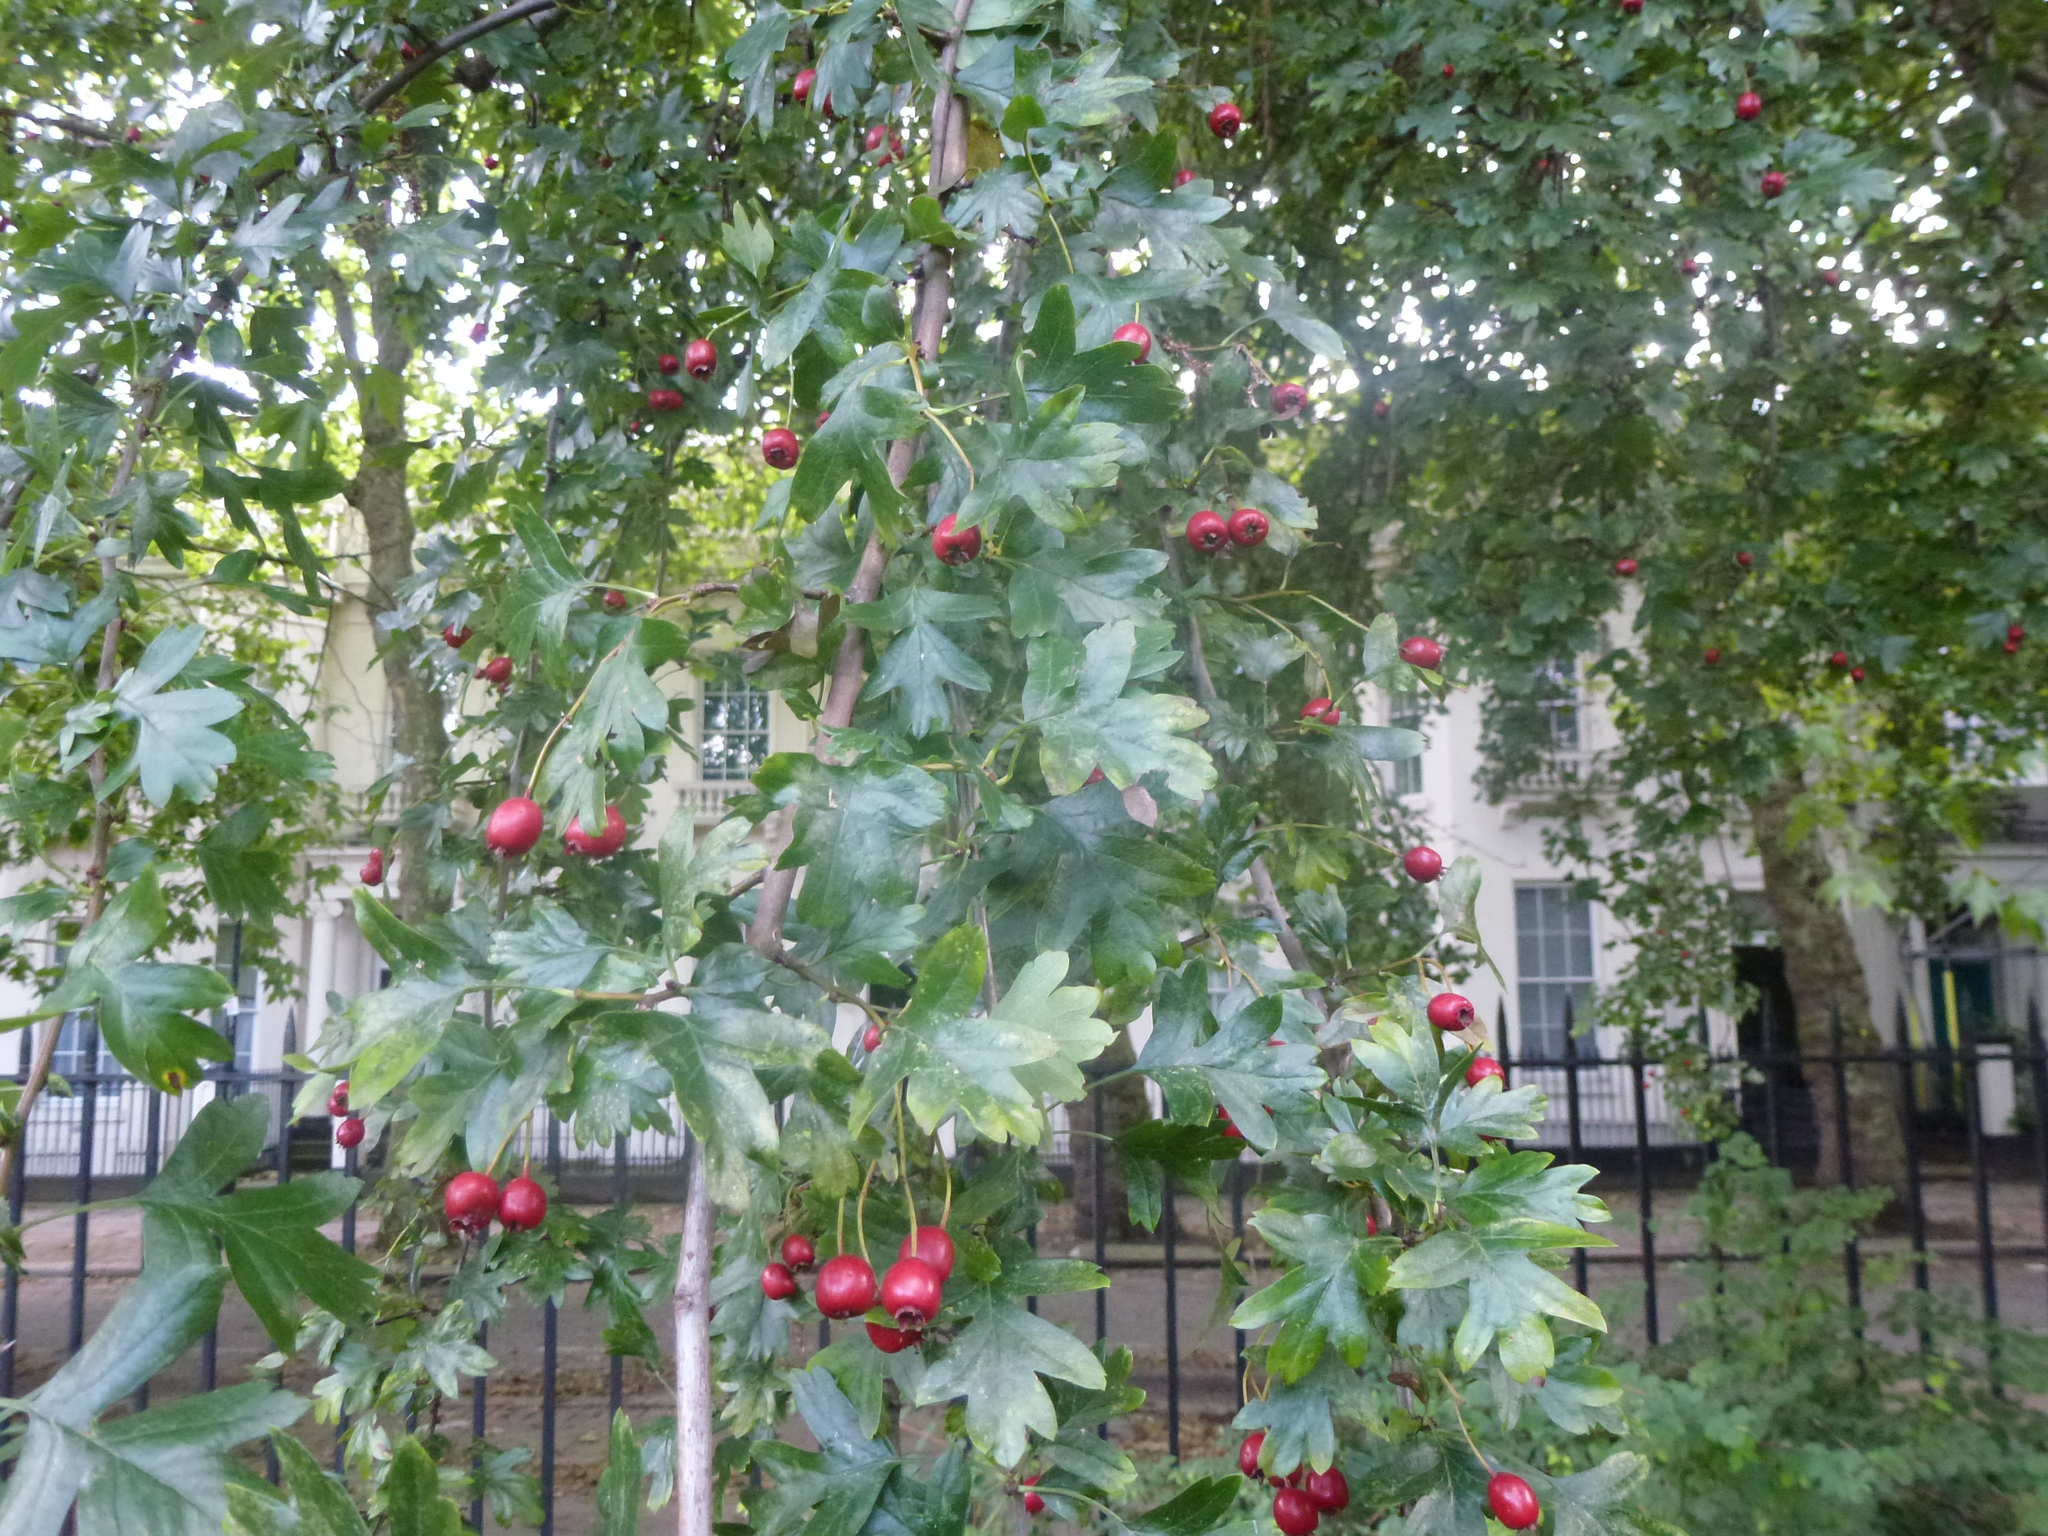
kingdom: Plantae
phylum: Tracheophyta
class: Magnoliopsida
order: Rosales
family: Rosaceae
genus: Crataegus
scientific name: Crataegus monogyna
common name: Hawthorn
